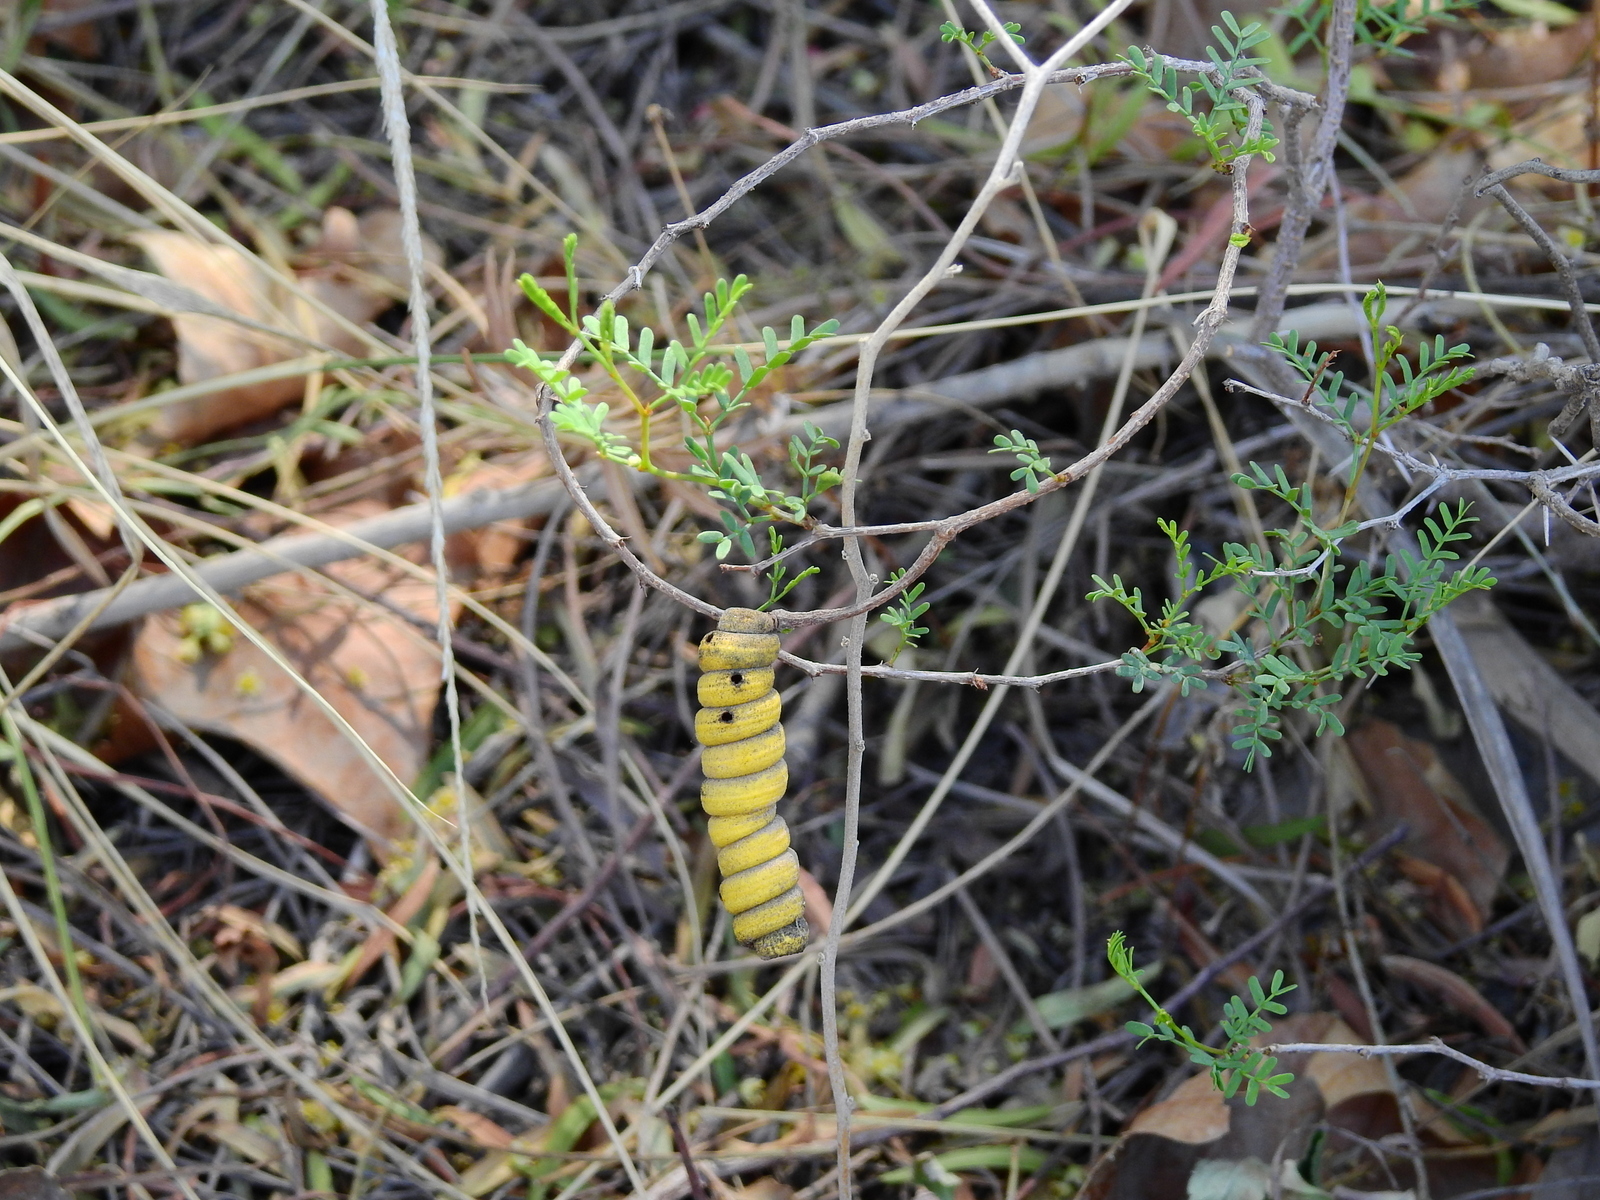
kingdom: Plantae
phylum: Tracheophyta
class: Magnoliopsida
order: Fabales
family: Fabaceae
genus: Prosopis
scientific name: Prosopis strombulifera
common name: Creeping mesquite
